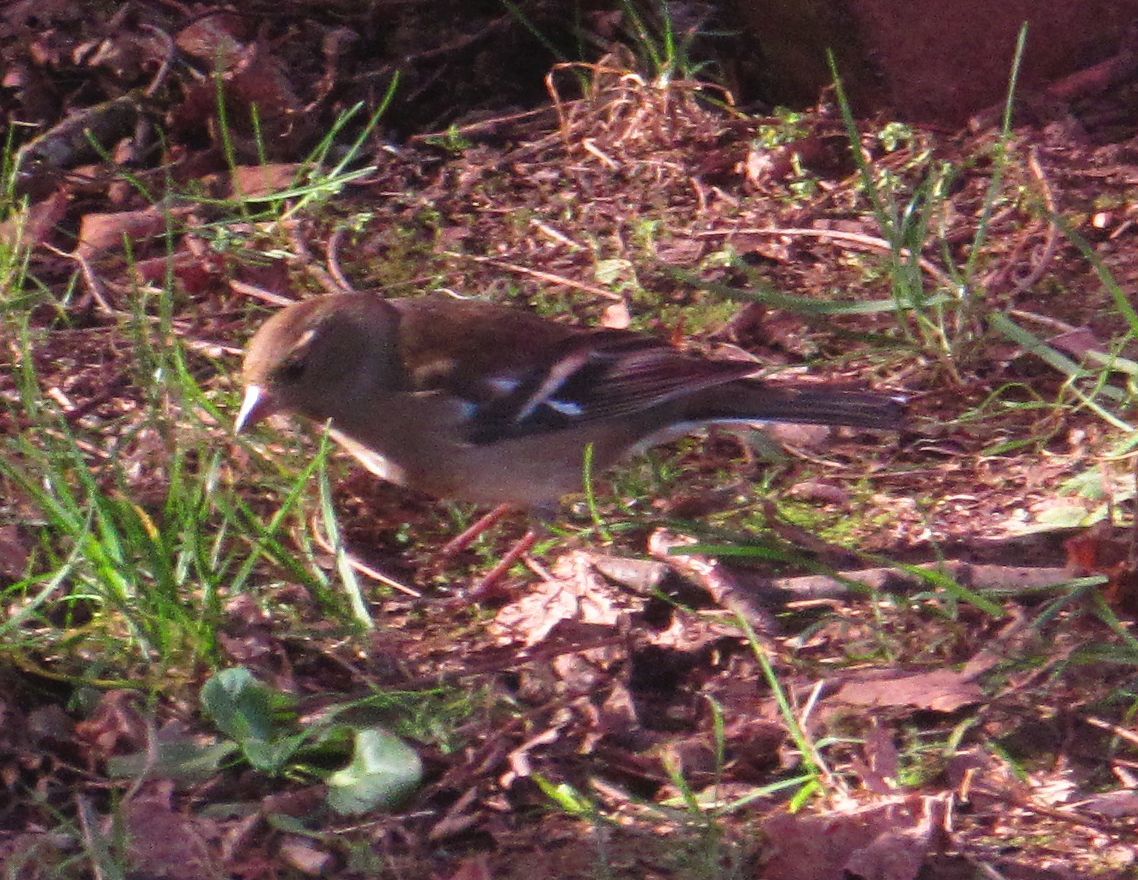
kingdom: Animalia
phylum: Chordata
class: Aves
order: Passeriformes
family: Fringillidae
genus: Fringilla
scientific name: Fringilla coelebs
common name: Common chaffinch
